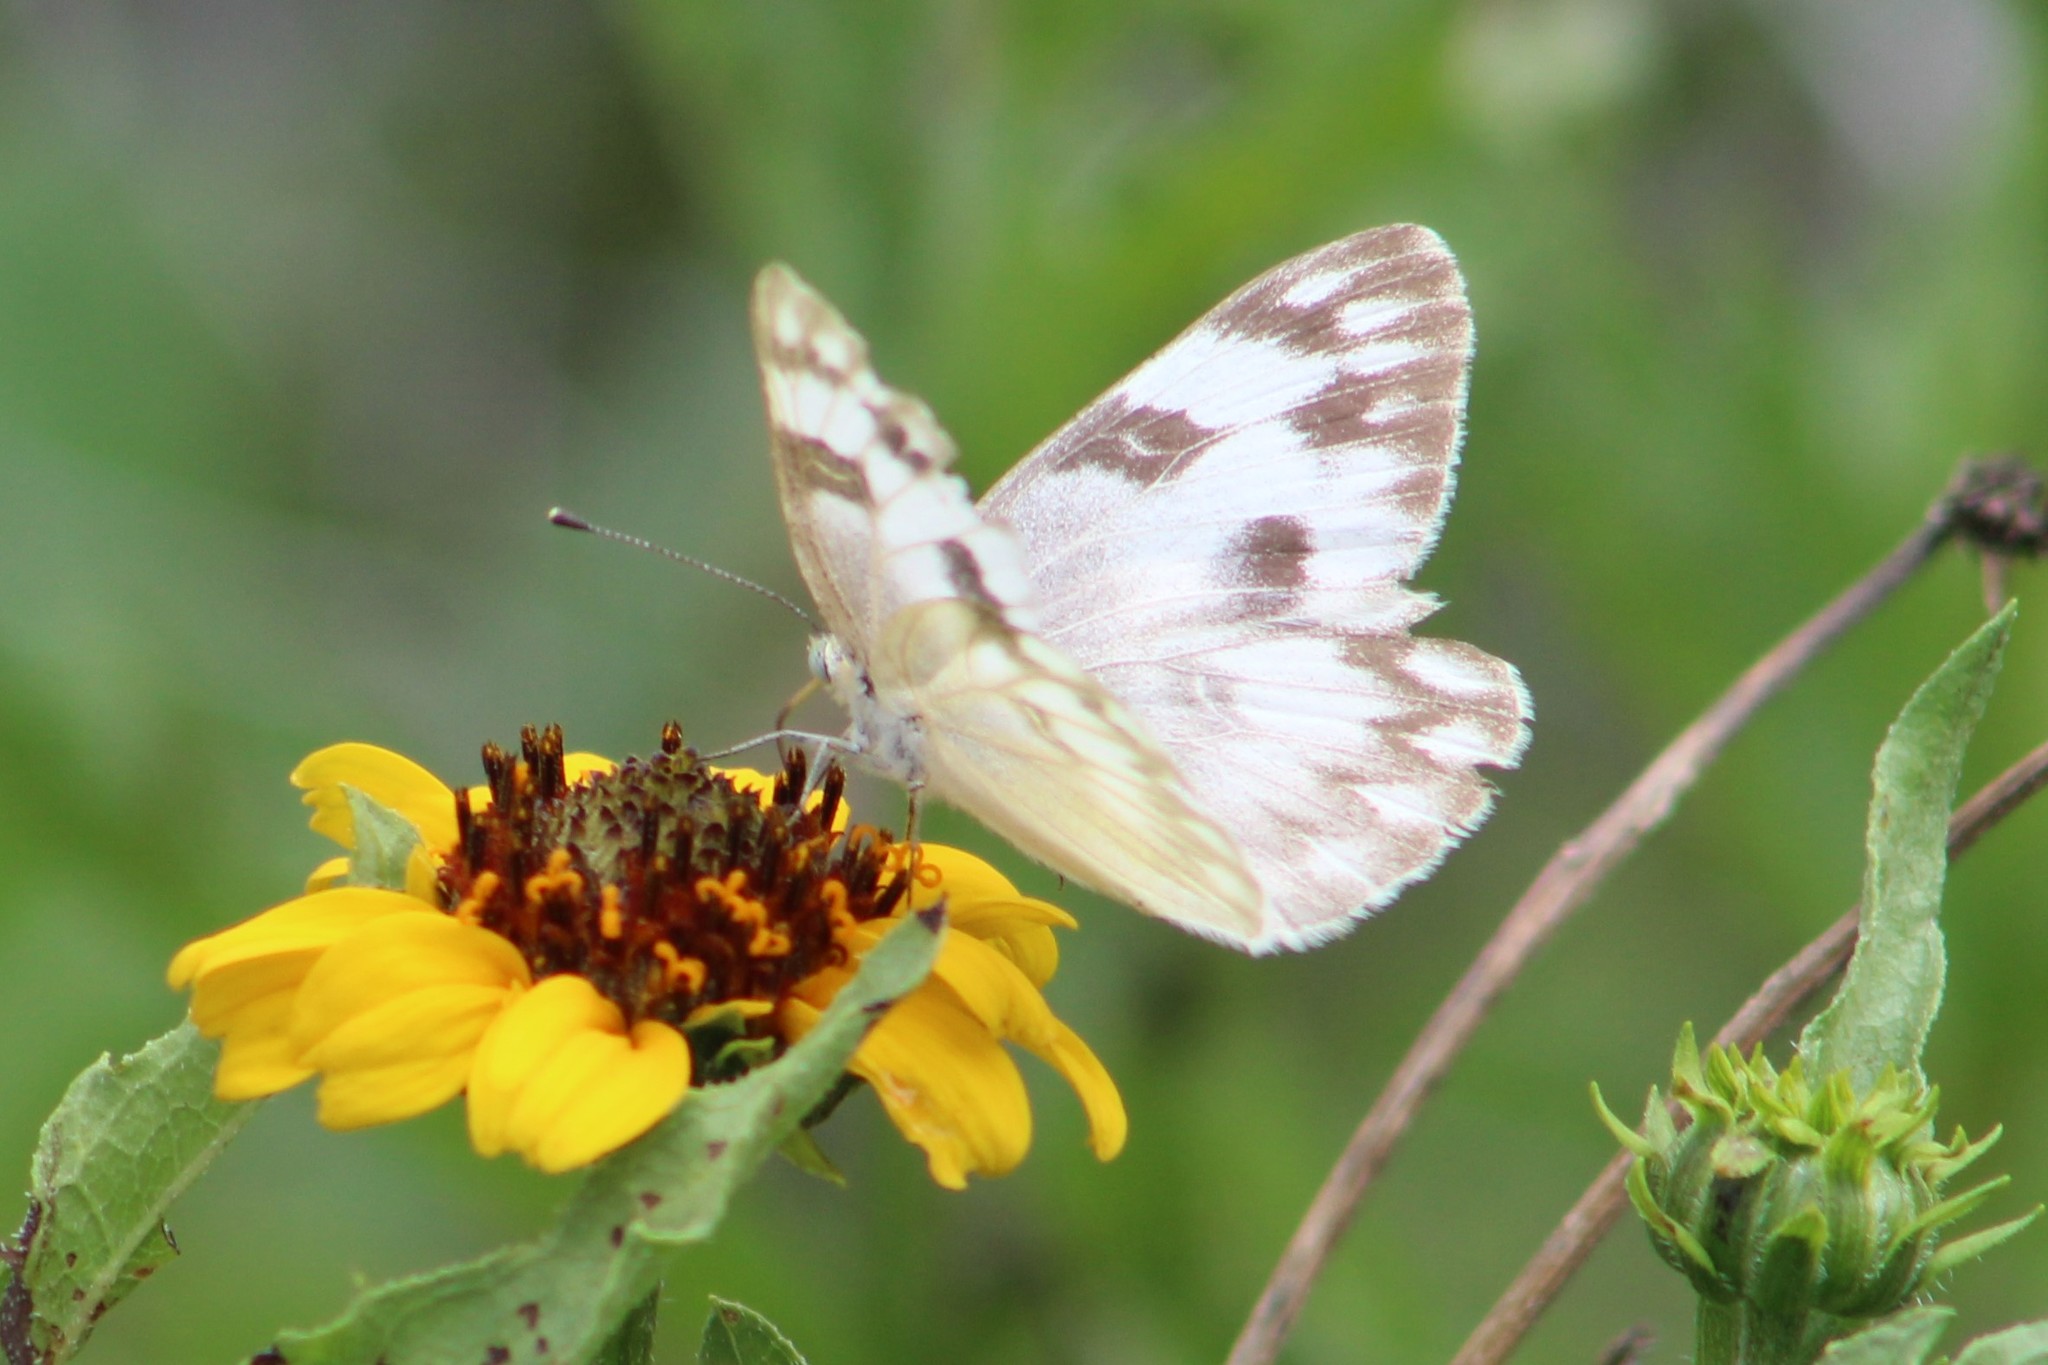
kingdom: Animalia
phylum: Arthropoda
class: Insecta
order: Lepidoptera
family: Pieridae
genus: Pontia
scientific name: Pontia protodice
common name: Checkered white
